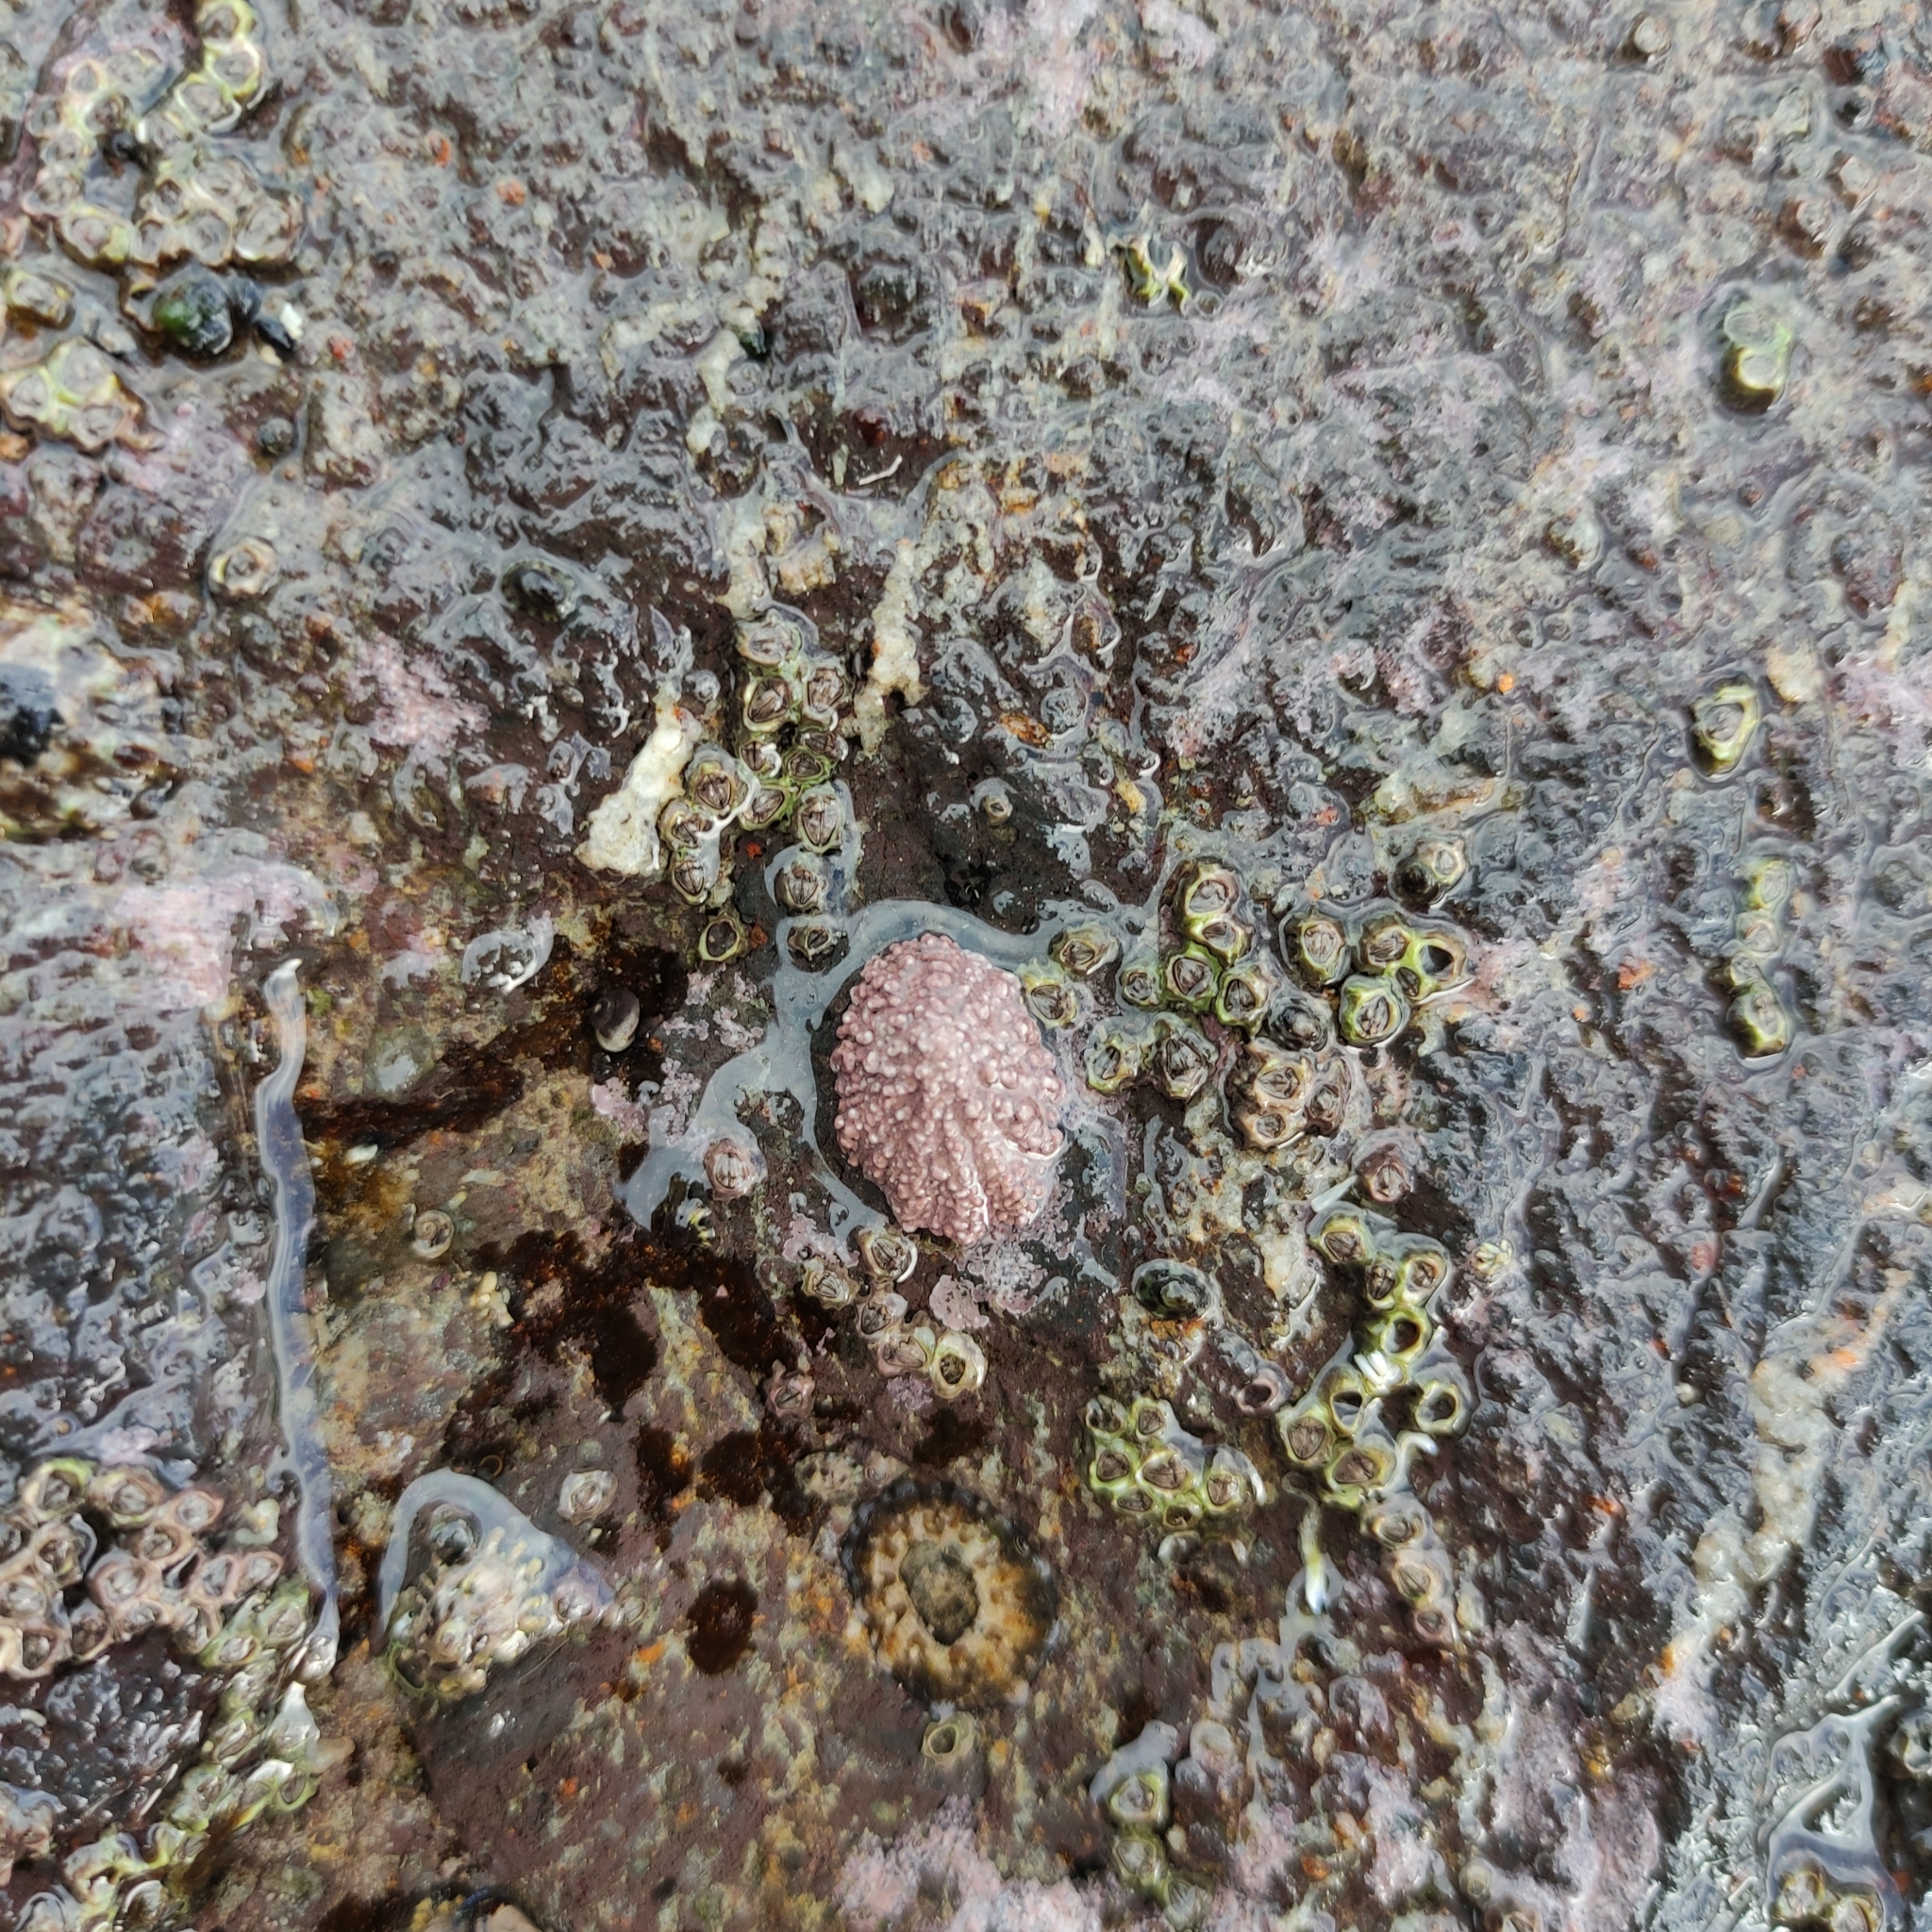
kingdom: Animalia
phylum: Mollusca
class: Gastropoda
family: Lottiidae
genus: Patelloida
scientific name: Patelloida corticata
